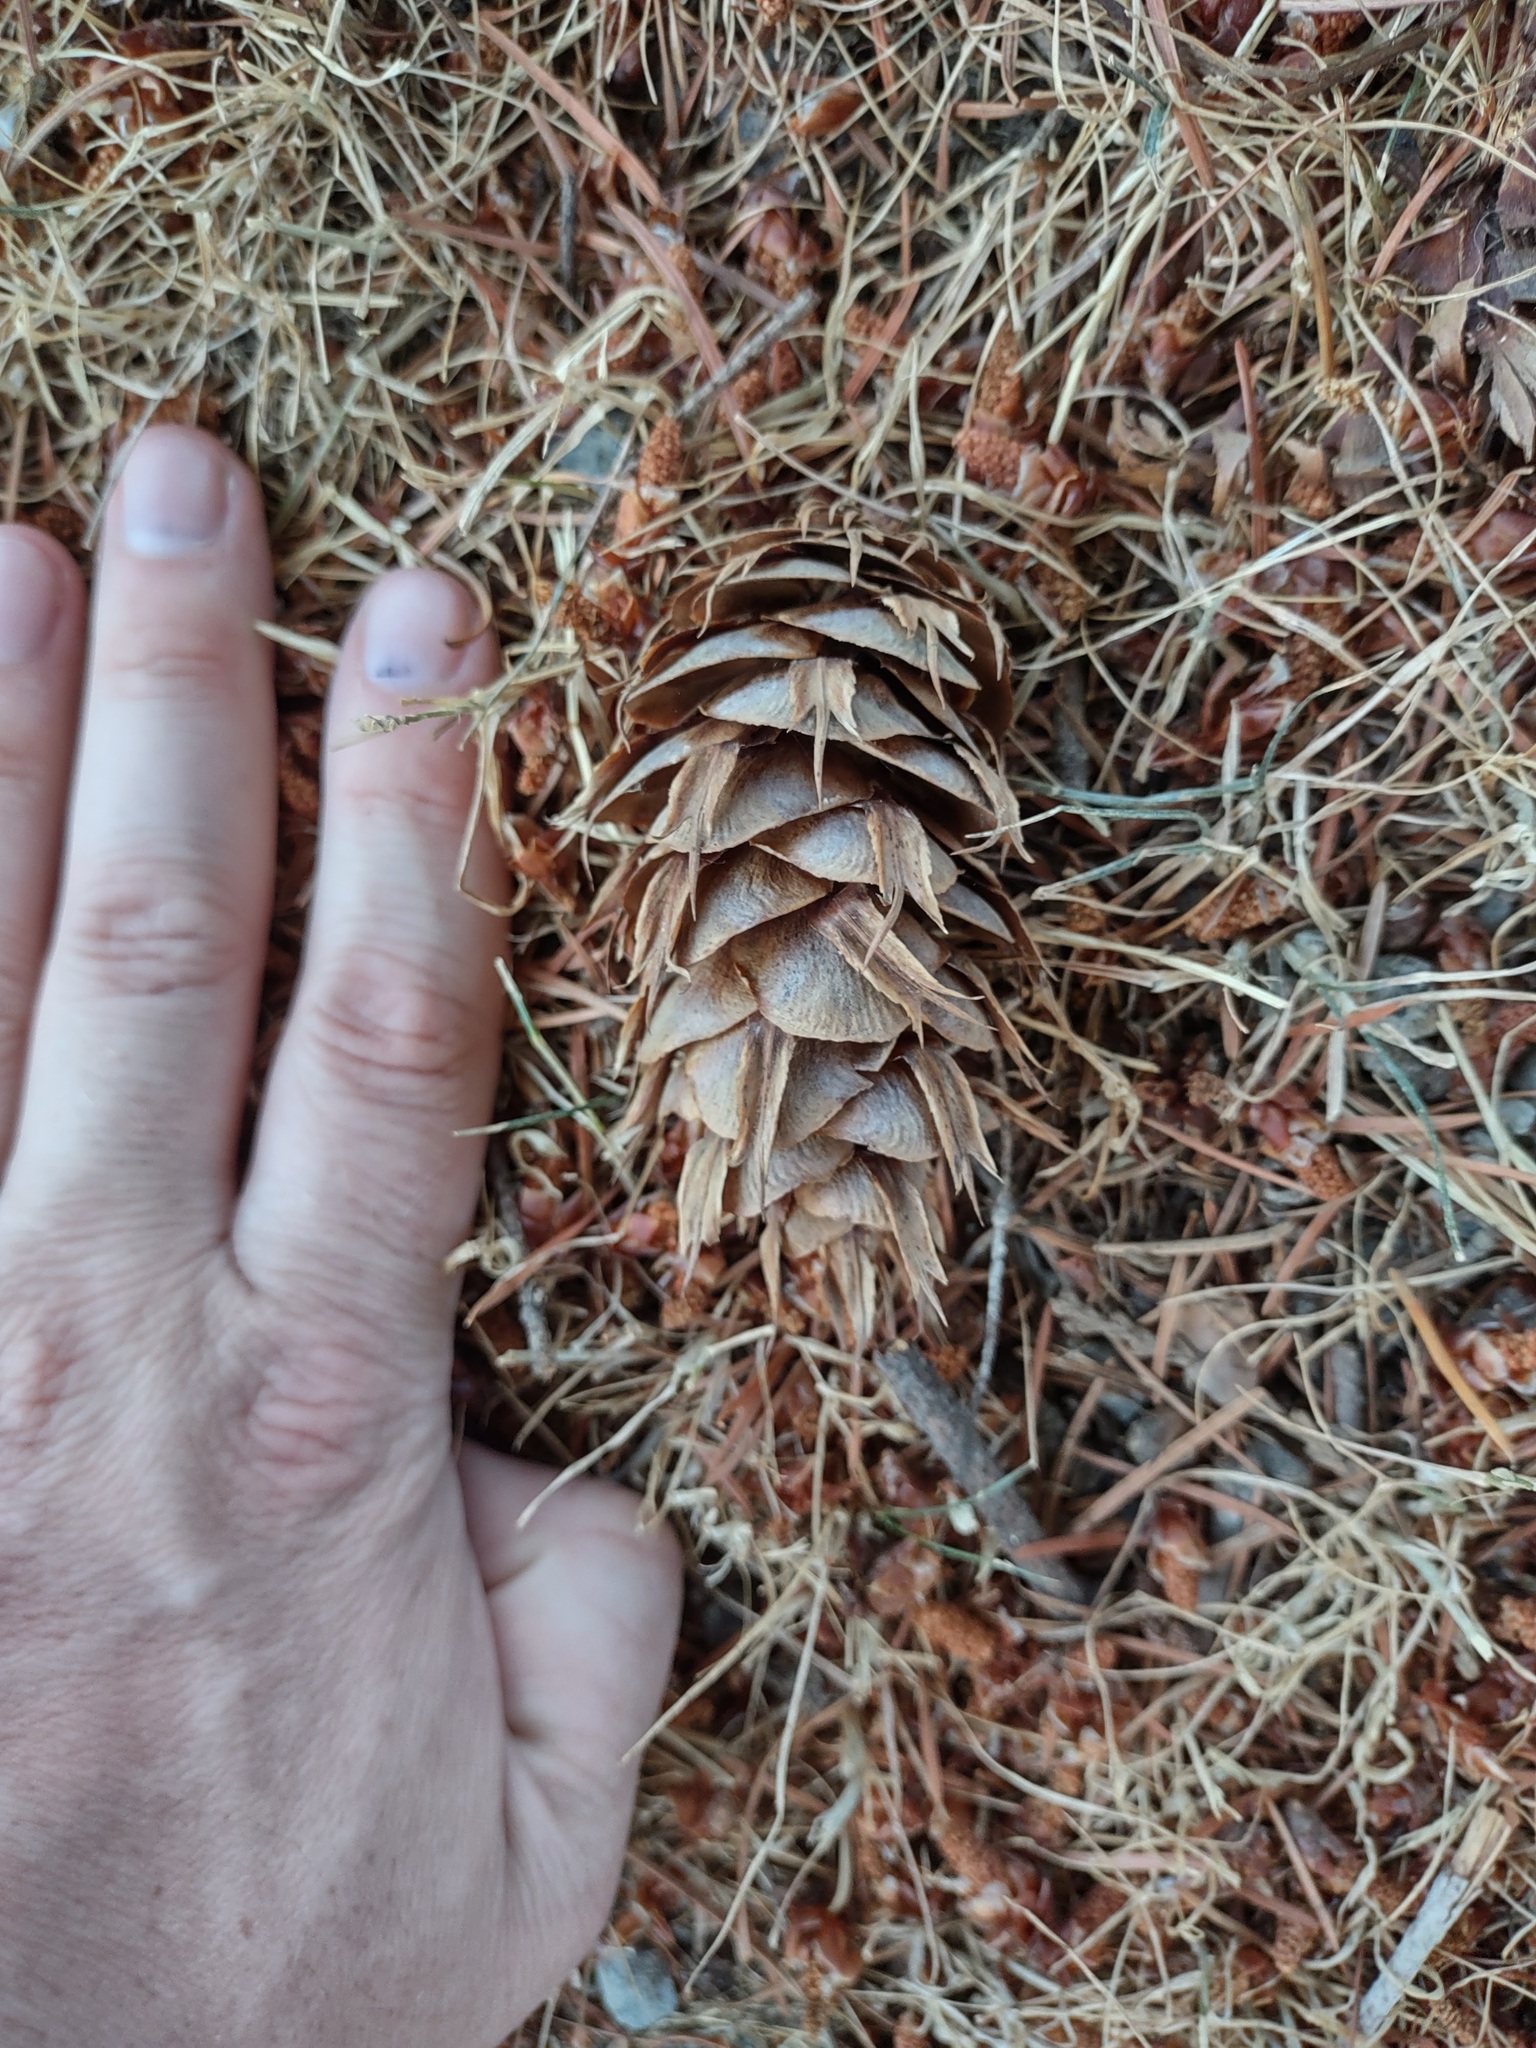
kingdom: Plantae
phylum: Tracheophyta
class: Pinopsida
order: Pinales
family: Pinaceae
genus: Pseudotsuga
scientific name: Pseudotsuga menziesii
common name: Douglas fir
